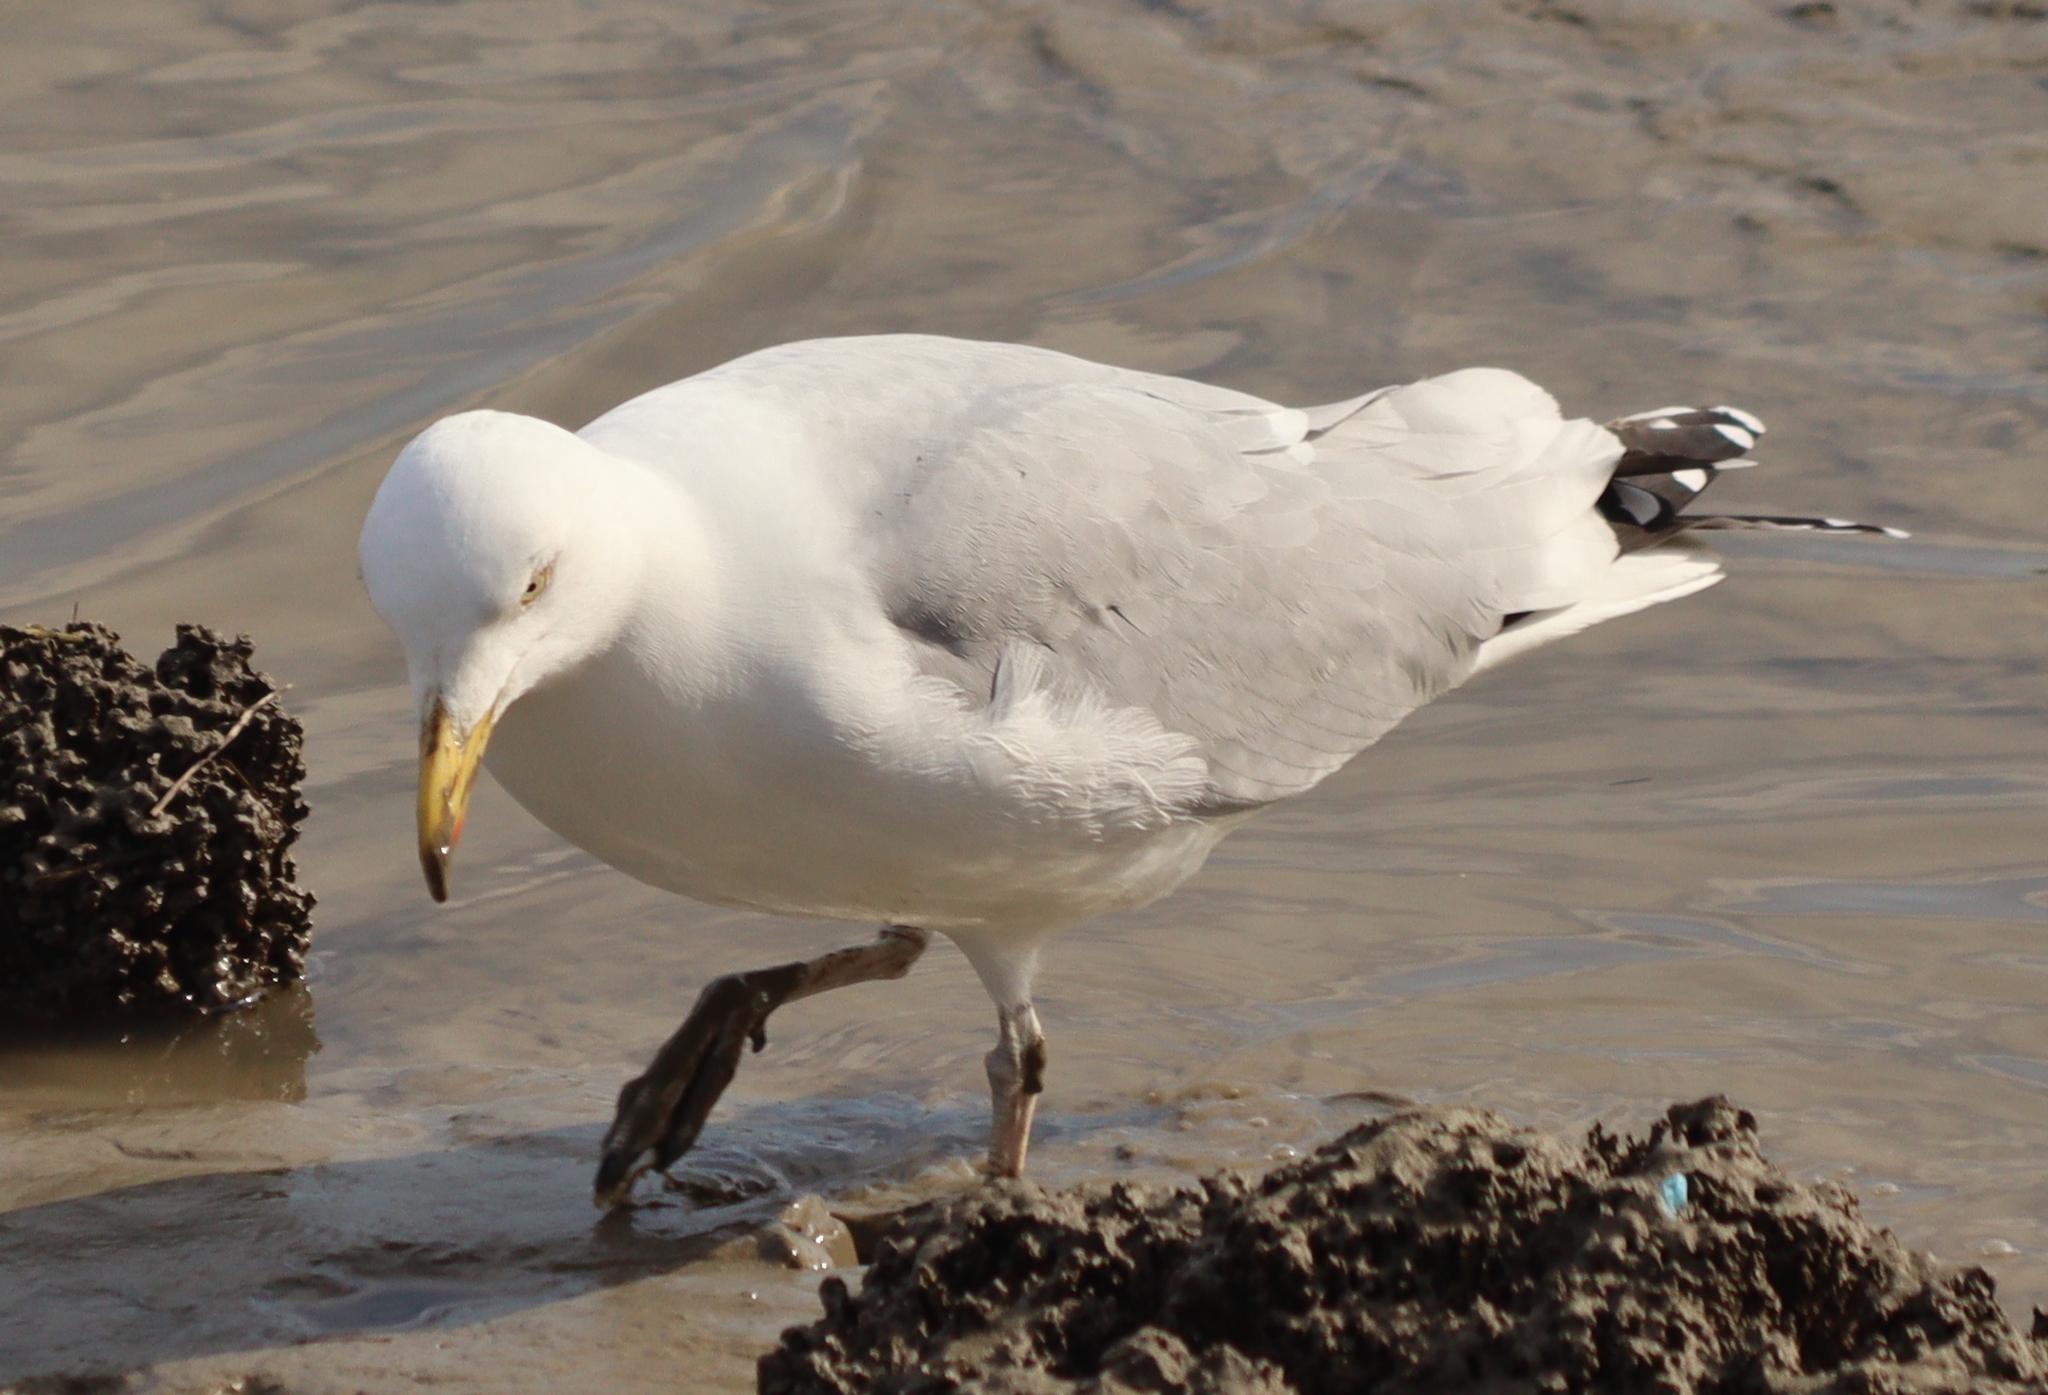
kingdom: Animalia
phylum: Chordata
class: Aves
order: Charadriiformes
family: Laridae
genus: Larus
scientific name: Larus argentatus
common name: Herring gull
